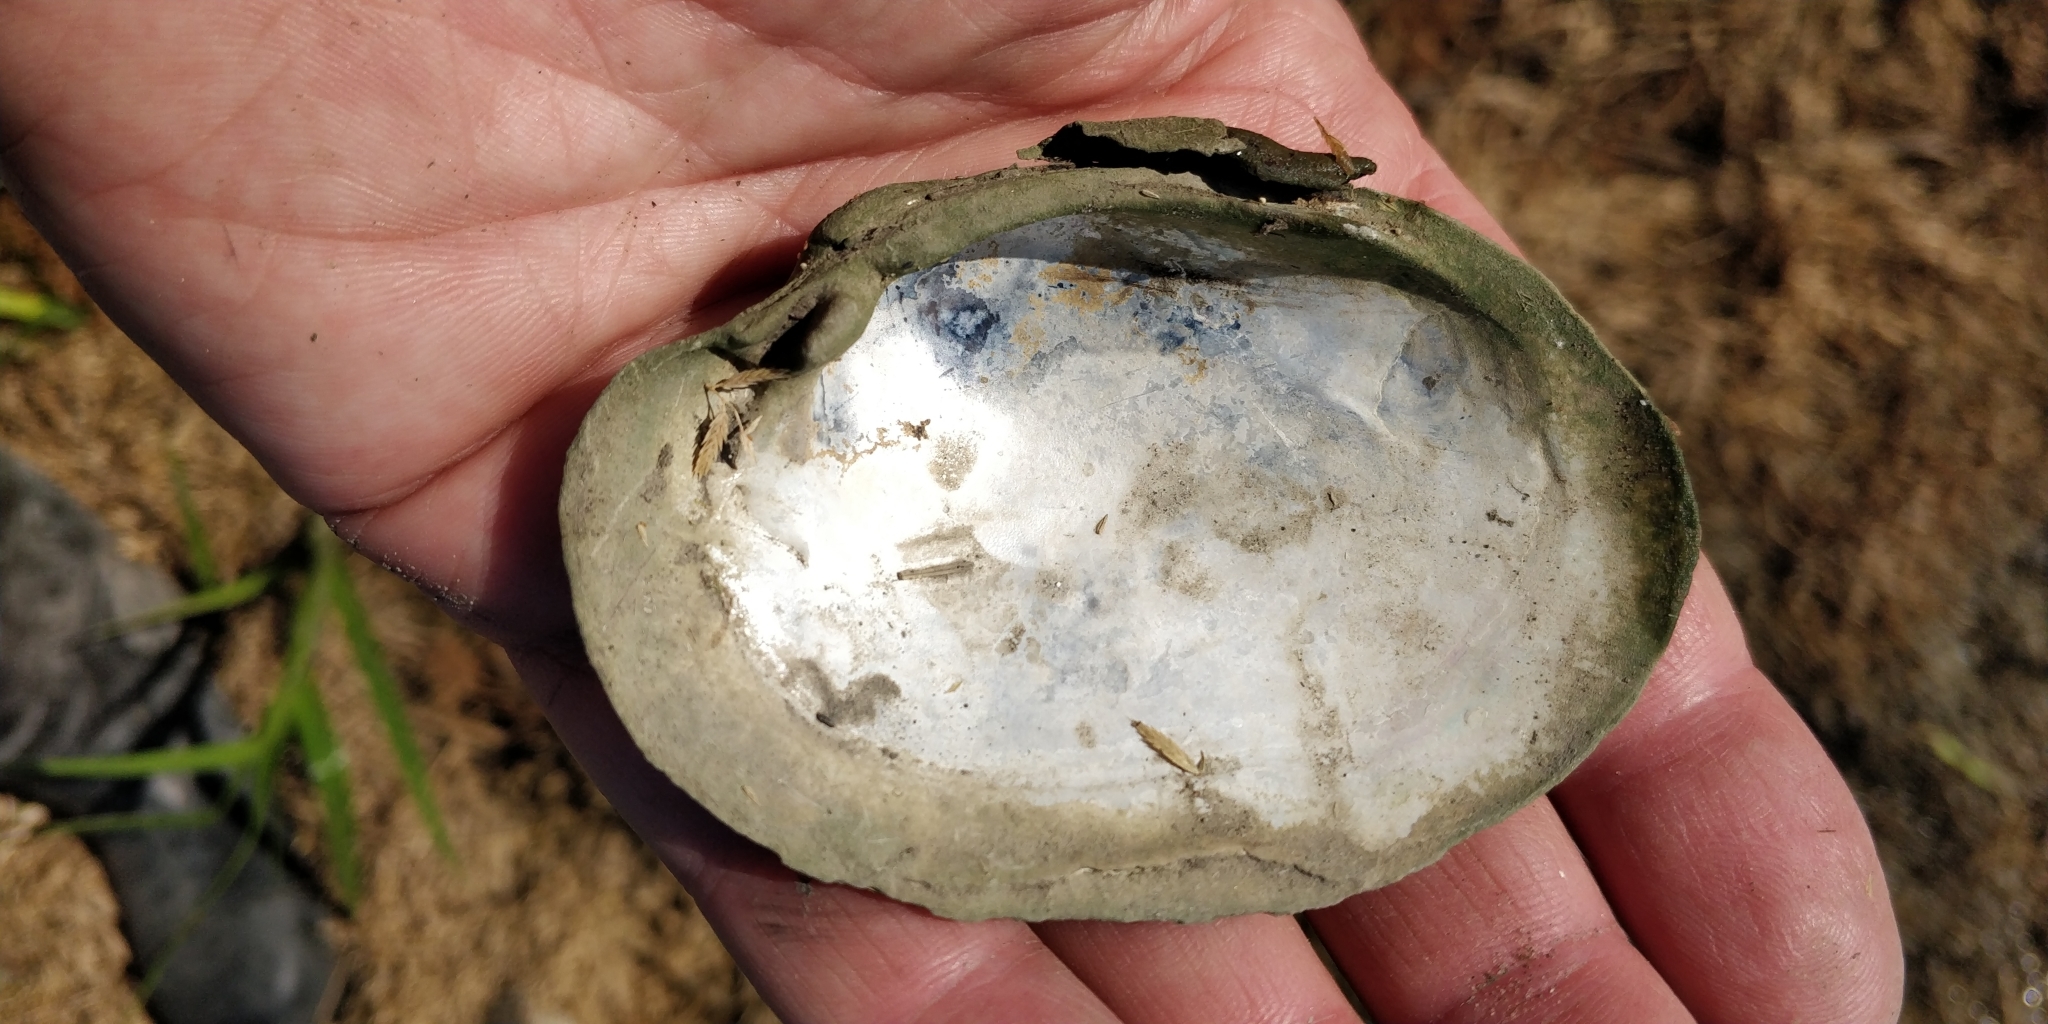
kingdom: Animalia
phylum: Mollusca
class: Bivalvia
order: Unionida
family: Unionidae
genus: Lampsilis
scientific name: Lampsilis cardium
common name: Plain pocketbook
